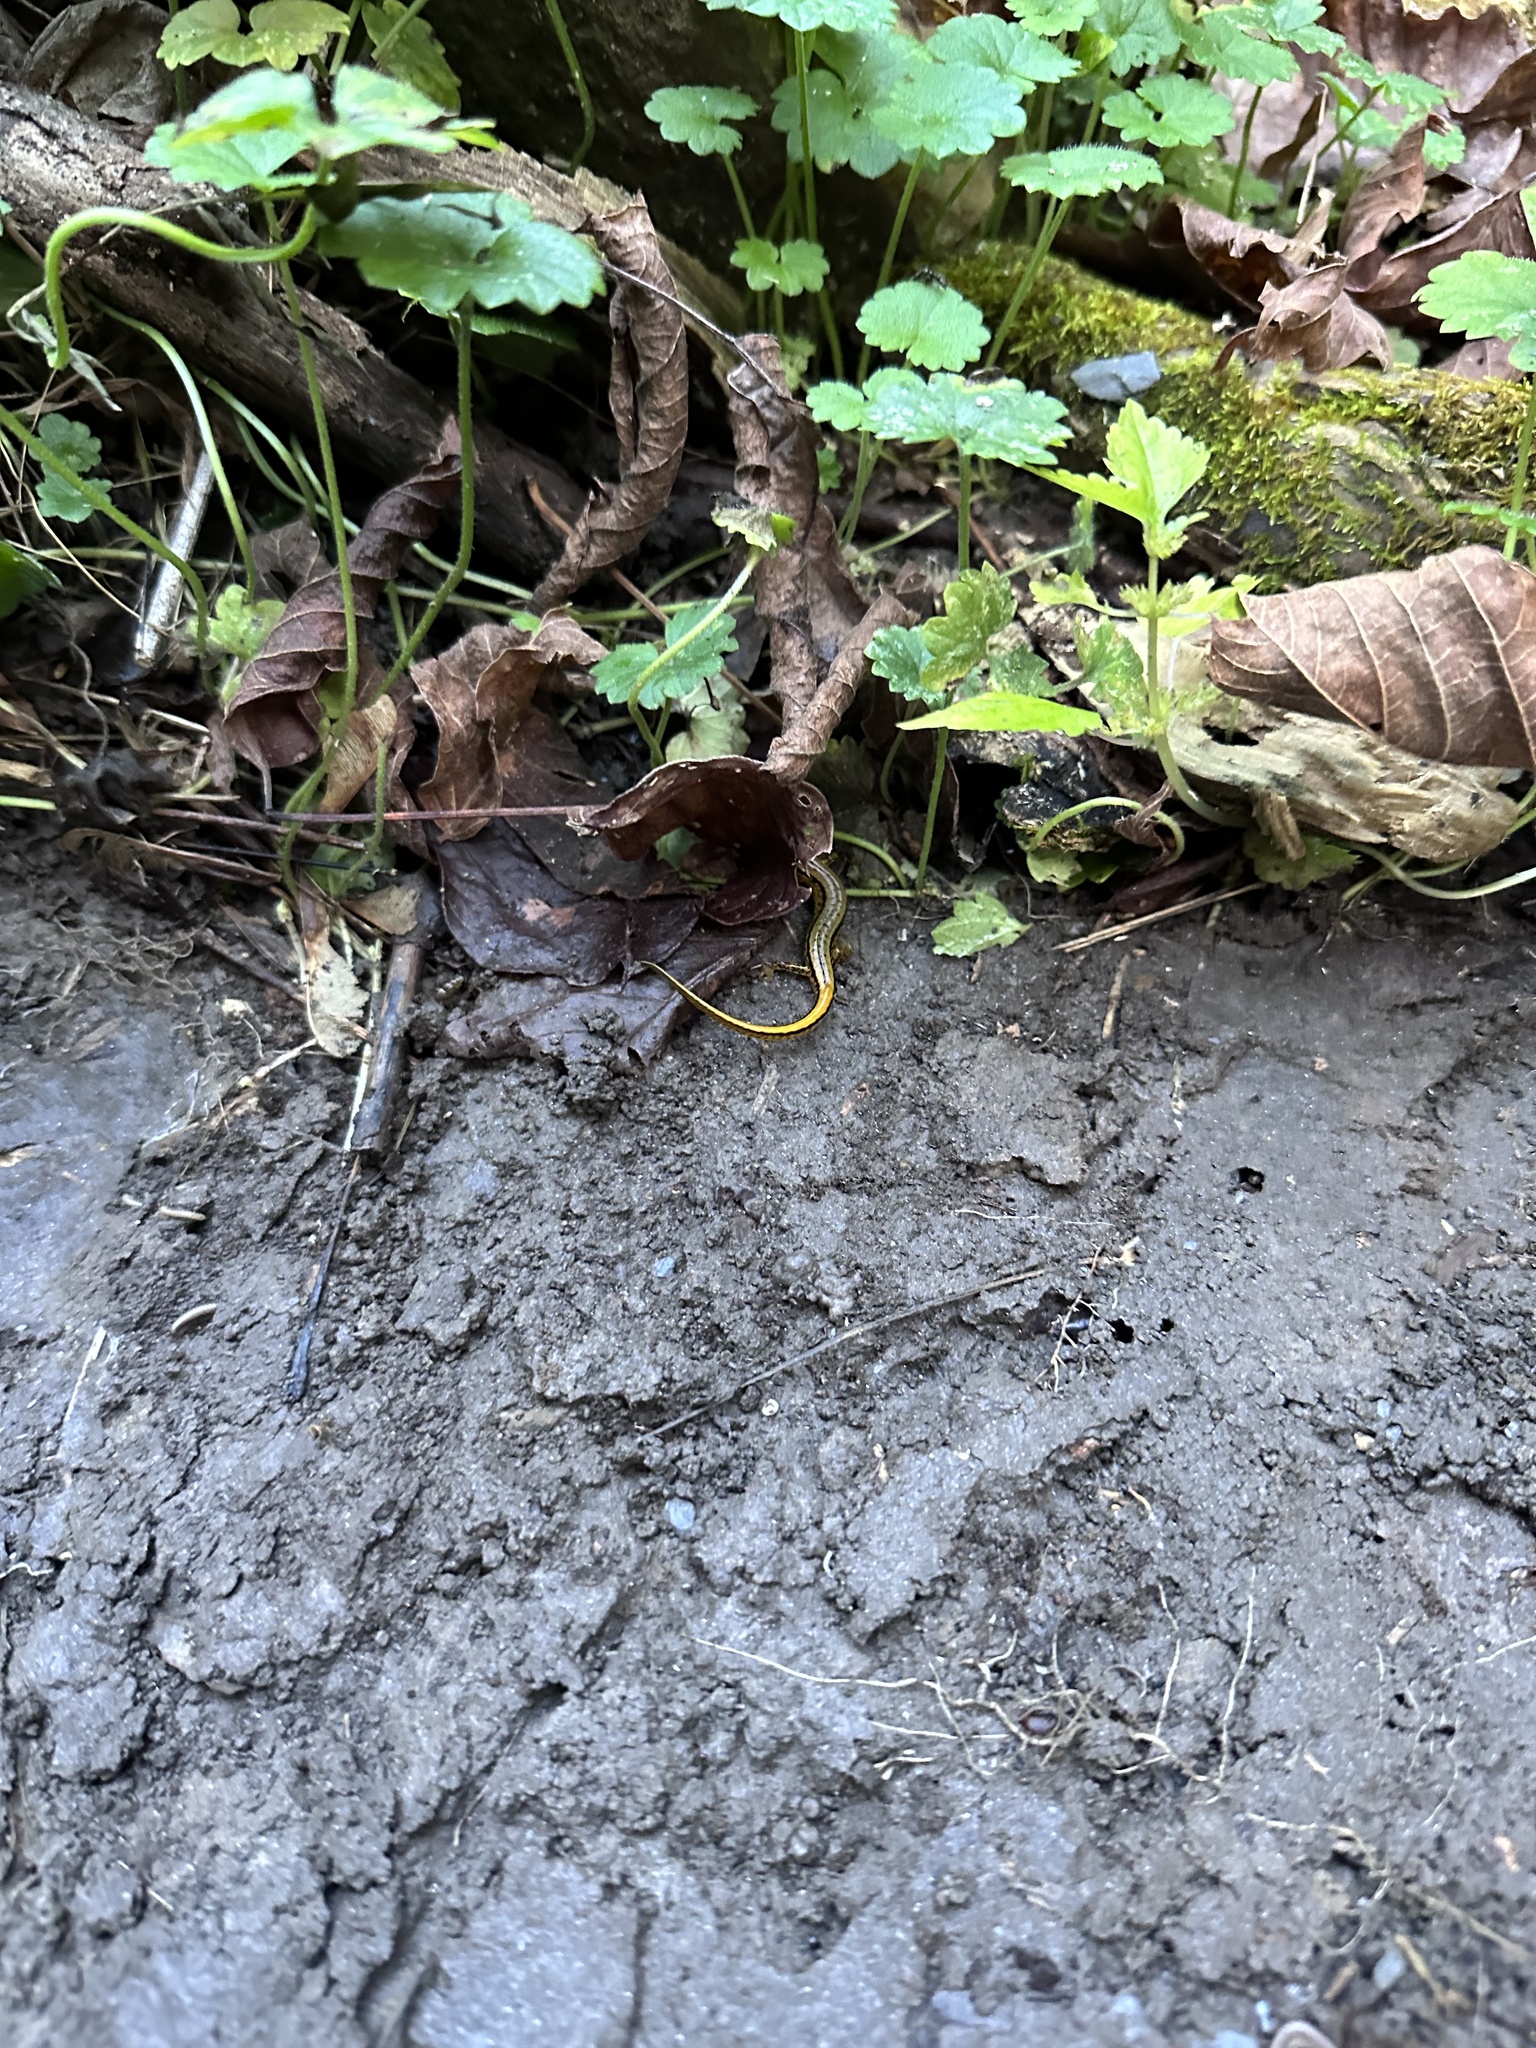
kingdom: Animalia
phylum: Chordata
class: Amphibia
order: Caudata
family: Plethodontidae
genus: Eurycea
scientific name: Eurycea cirrigera
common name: Southern two-lined salamander
